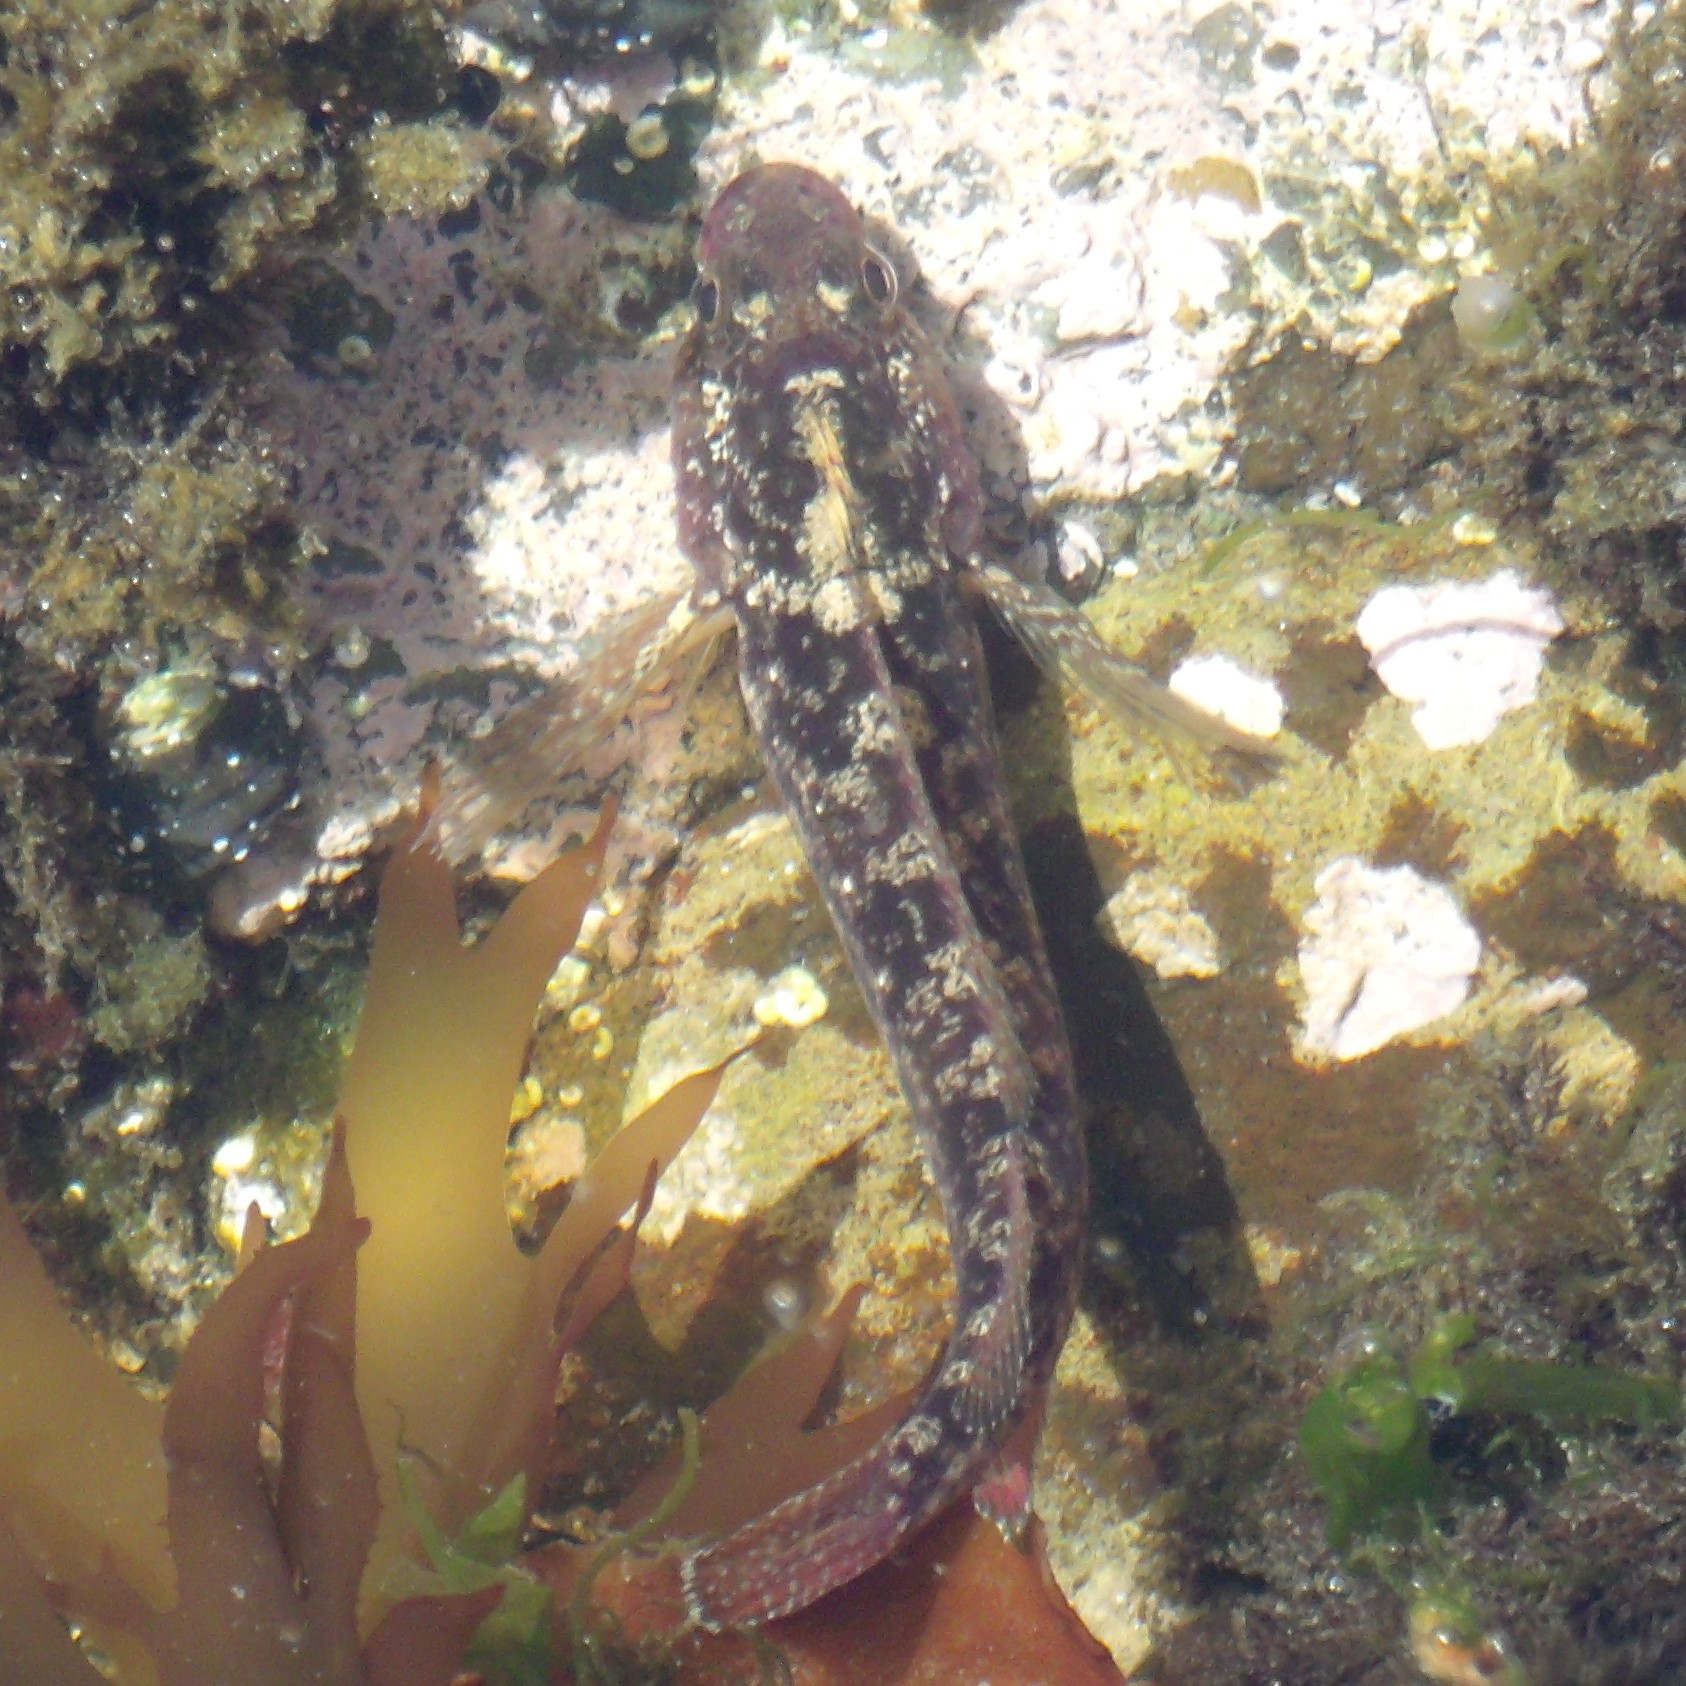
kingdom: Animalia
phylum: Chordata
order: Perciformes
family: Tripterygiidae
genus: Forsterygion
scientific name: Forsterygion gymnotum
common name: Multifid-tentacled robust triplefin
